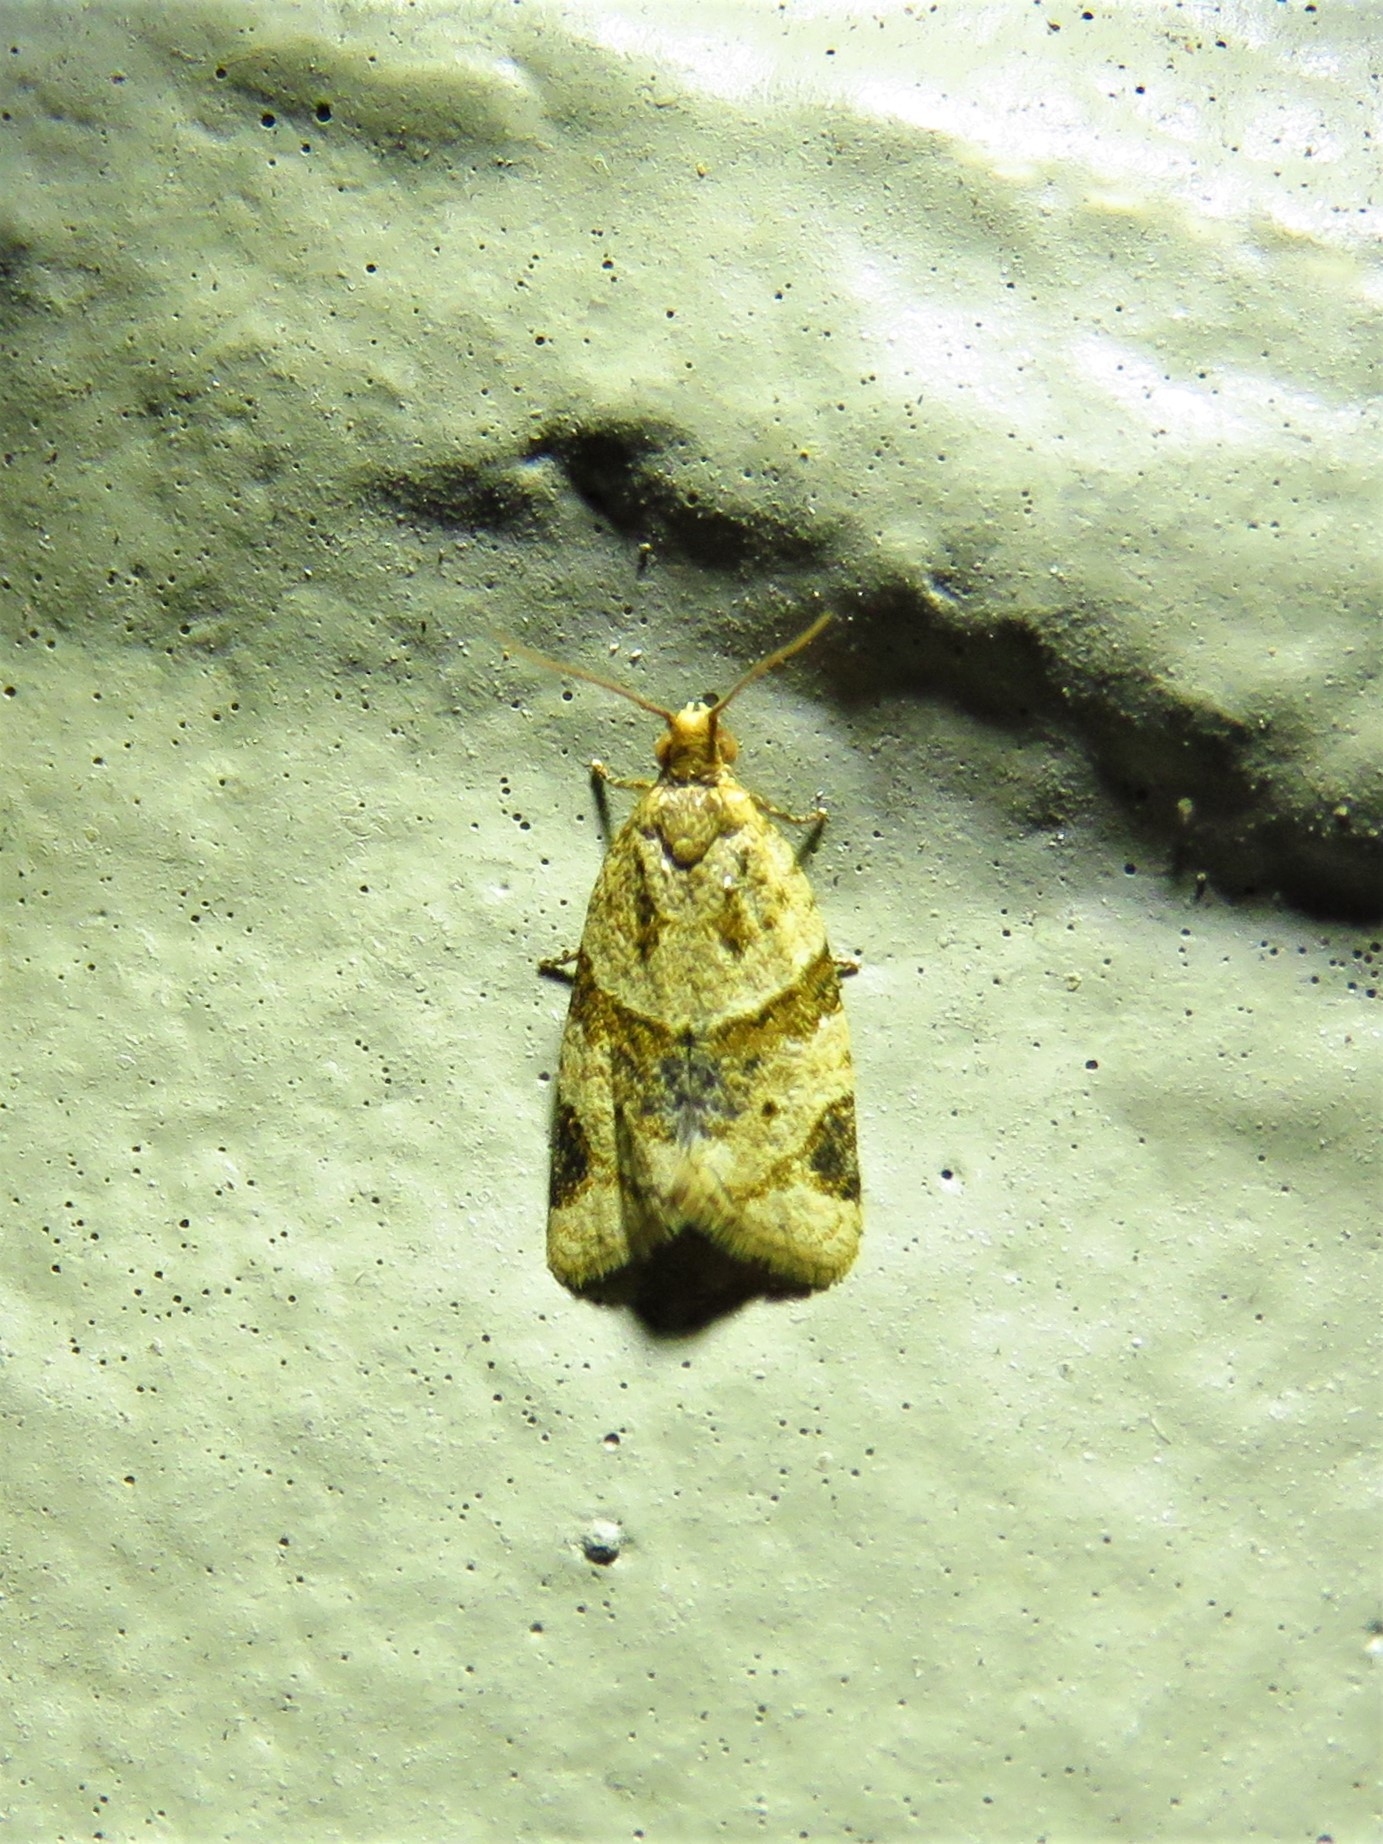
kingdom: Animalia
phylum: Arthropoda
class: Insecta
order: Lepidoptera
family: Tortricidae
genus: Clepsis
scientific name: Clepsis peritana
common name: Garden tortrix
